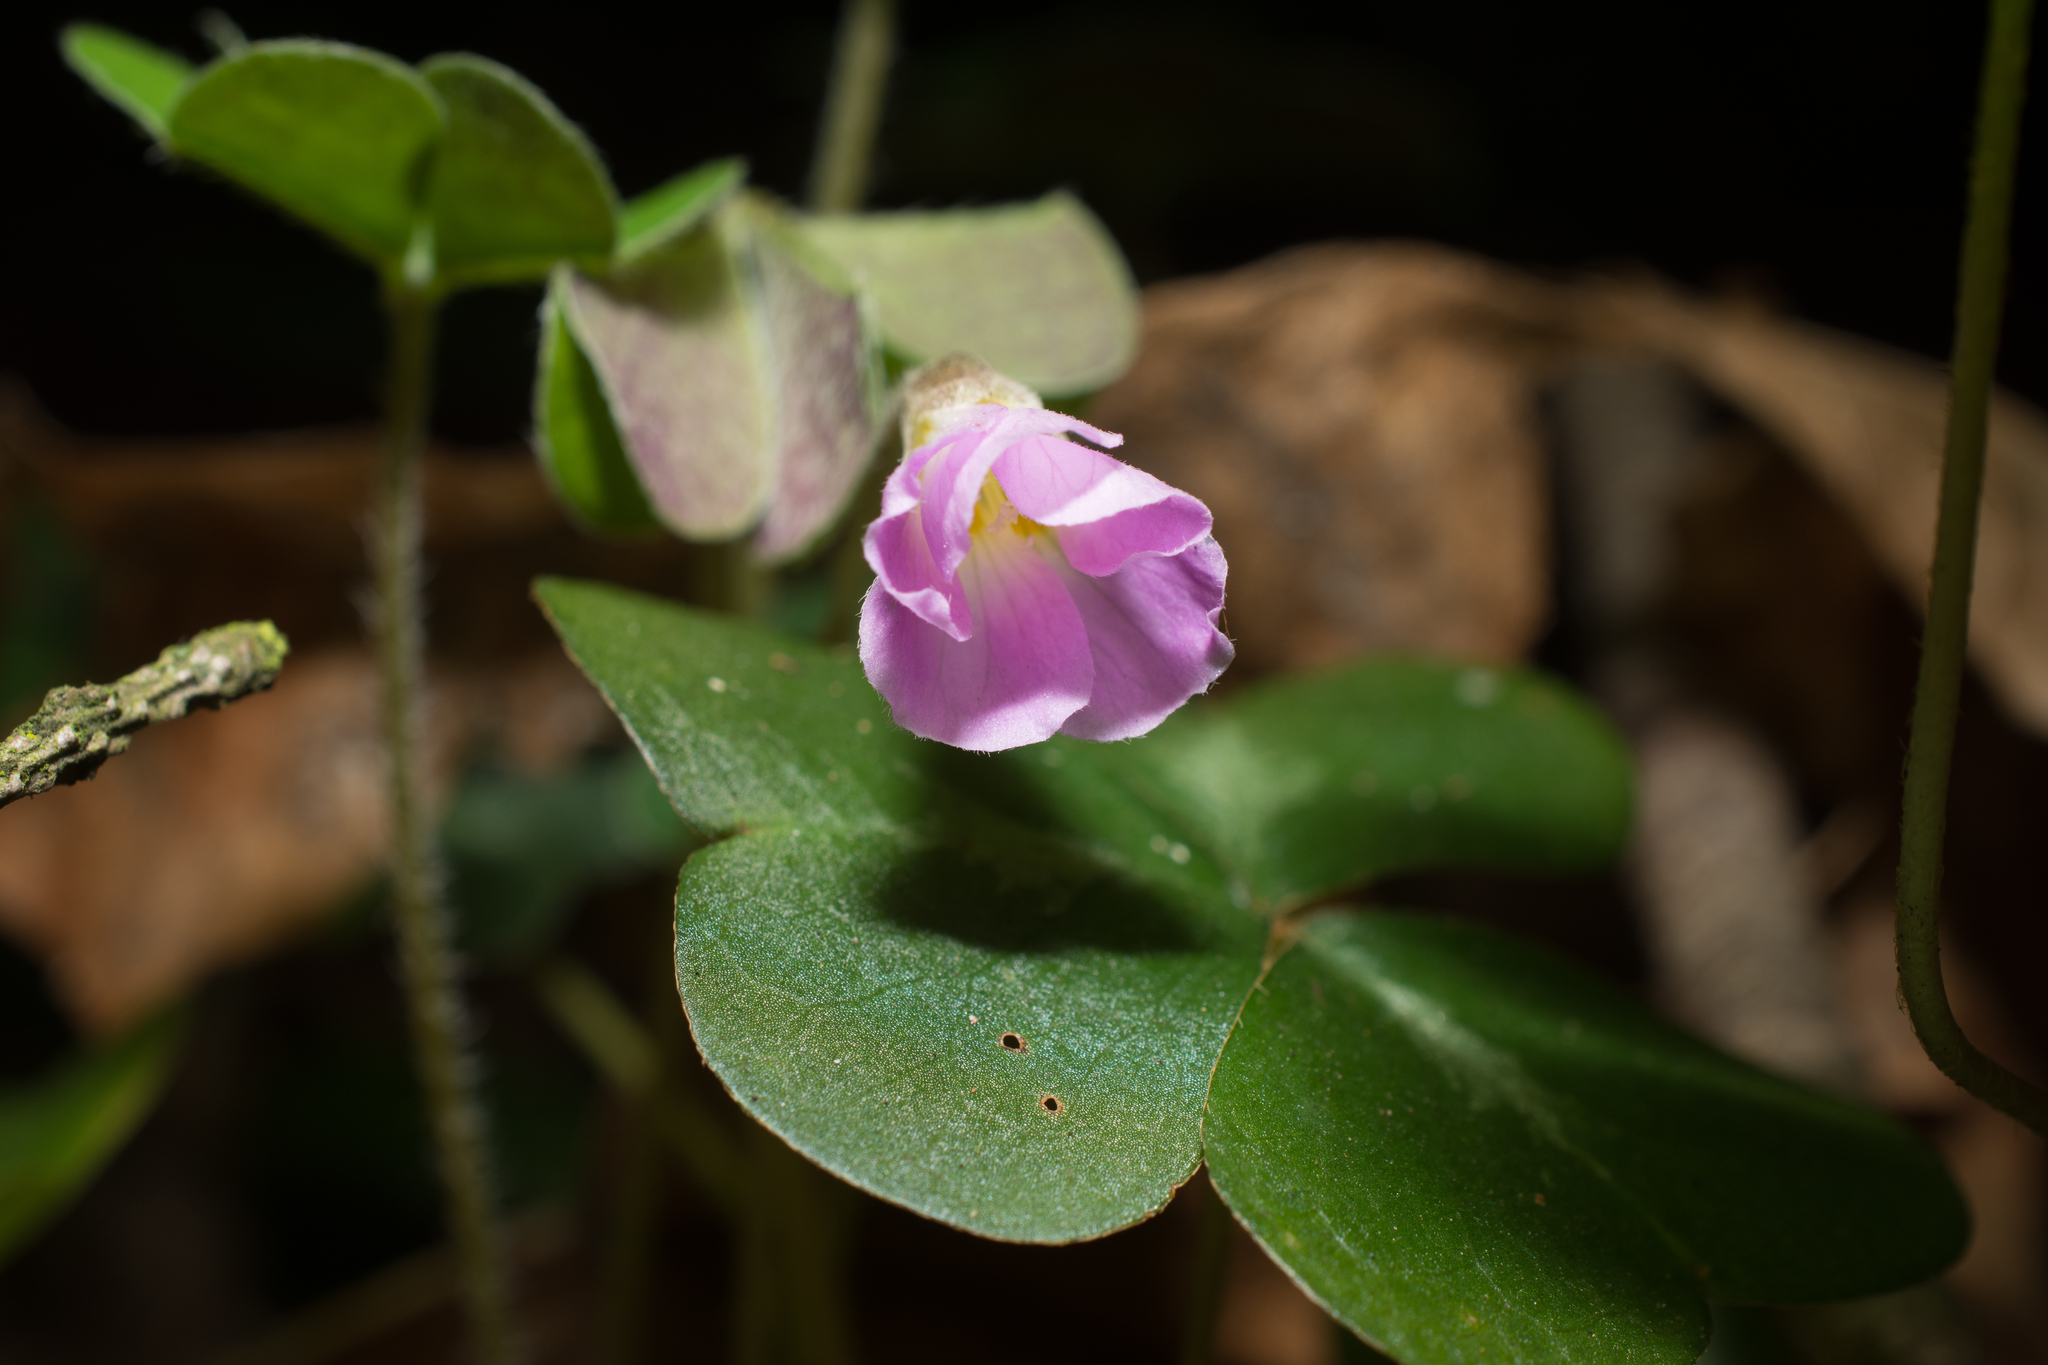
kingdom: Plantae
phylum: Tracheophyta
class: Magnoliopsida
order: Oxalidales
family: Oxalidaceae
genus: Oxalis
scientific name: Oxalis oregana
